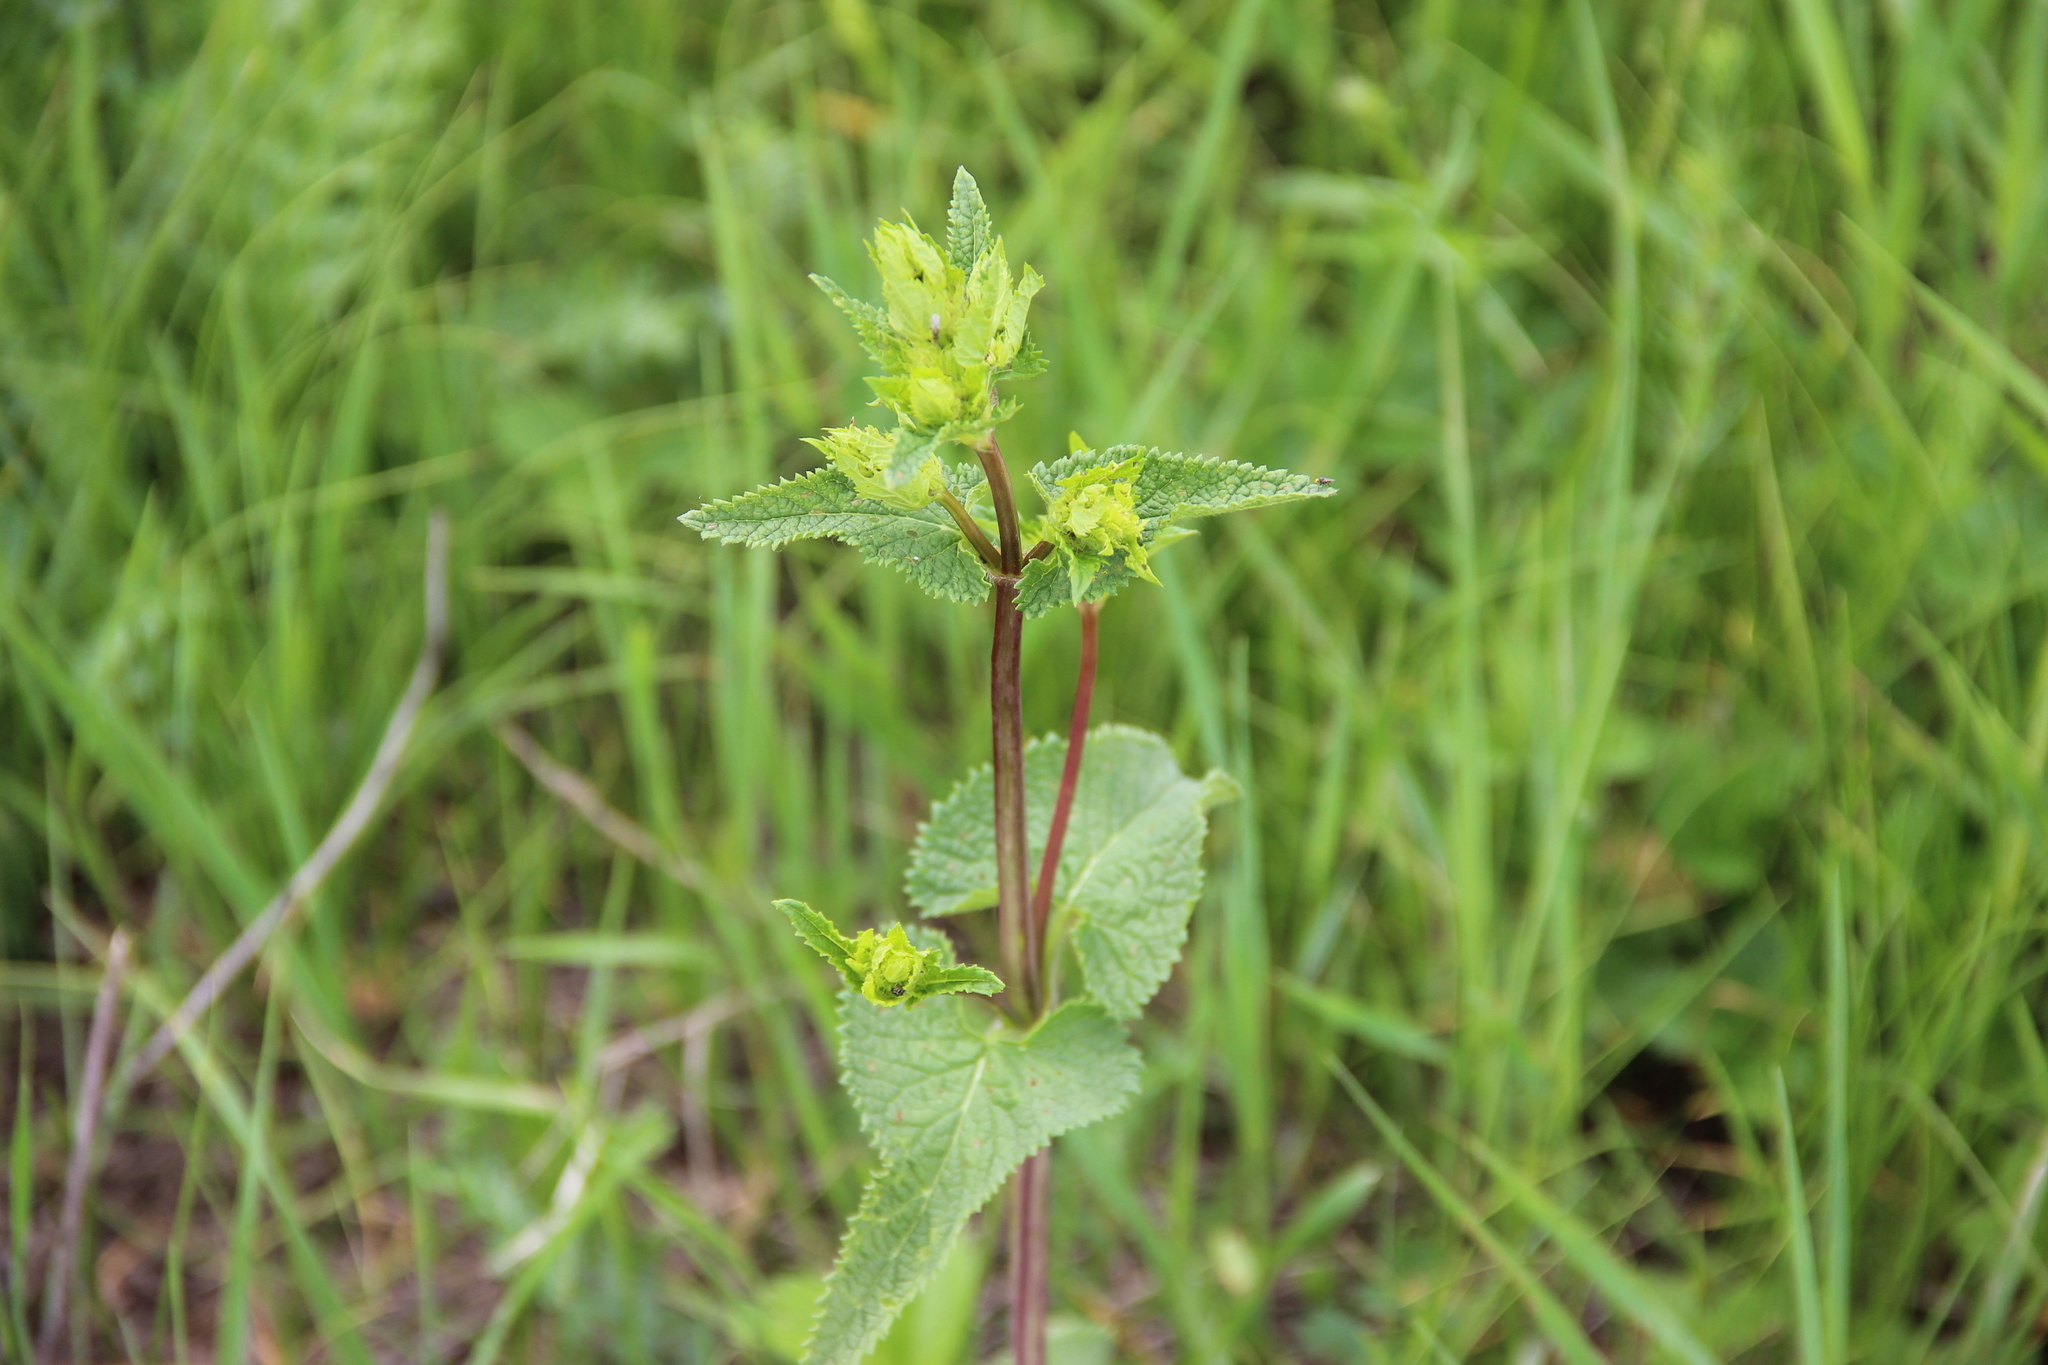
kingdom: Plantae
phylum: Tracheophyta
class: Magnoliopsida
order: Lamiales
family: Lamiaceae
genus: Phlomoides
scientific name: Phlomoides tuberosa
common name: Tuberous jerusalem sage
